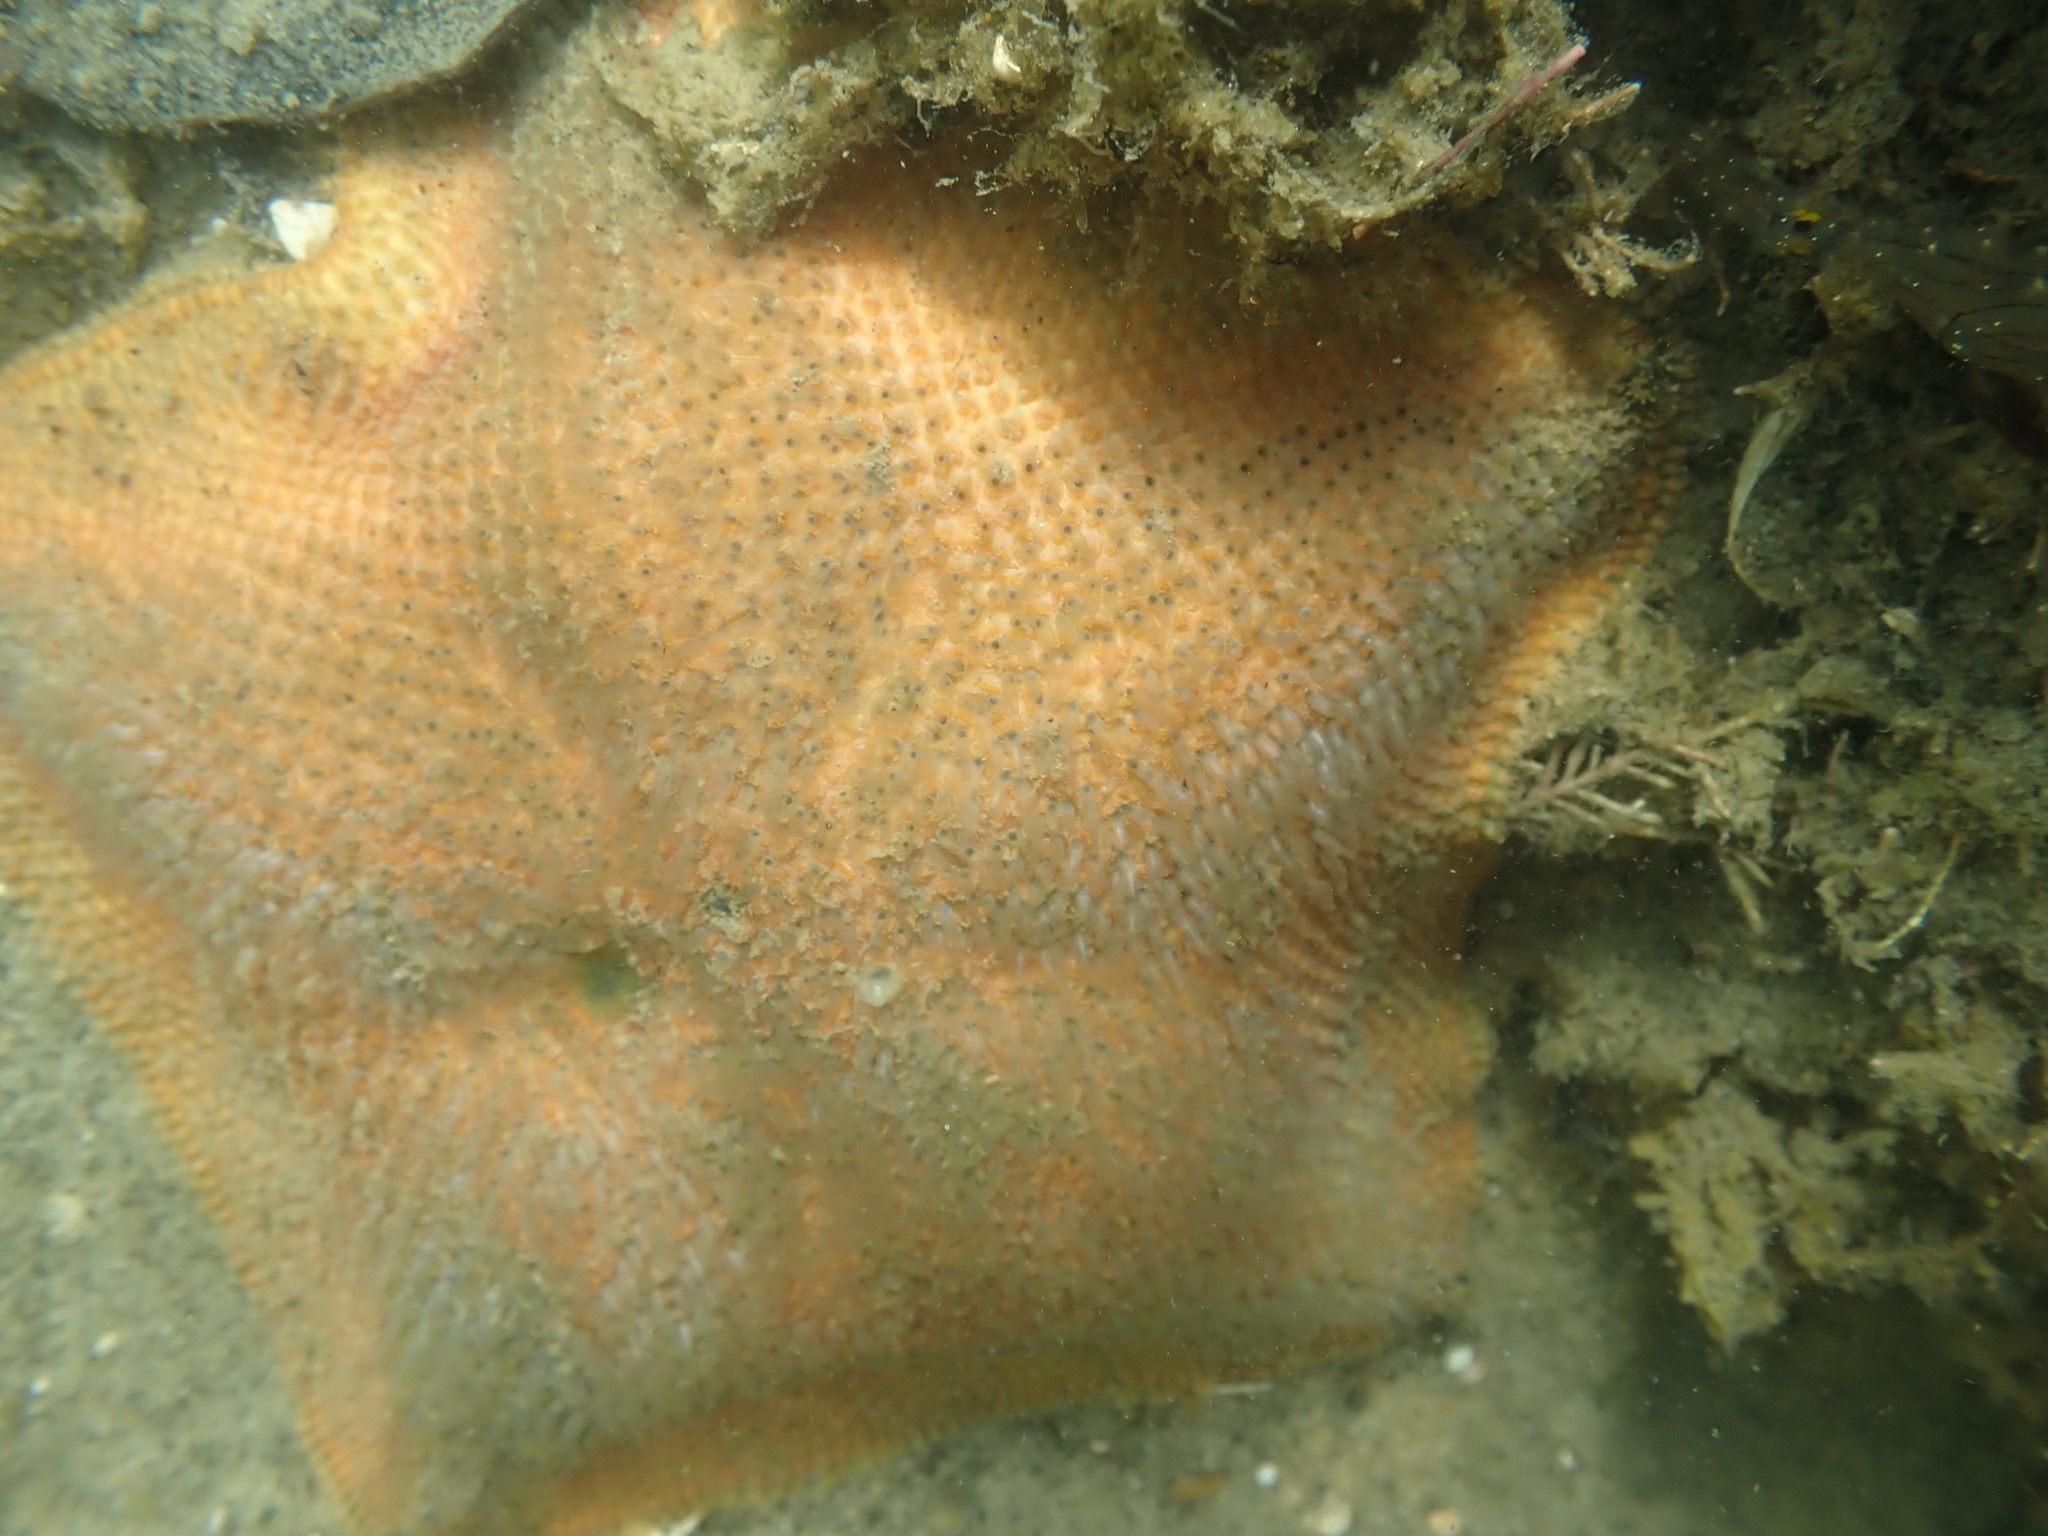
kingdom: Animalia
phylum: Echinodermata
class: Asteroidea
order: Valvatida
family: Asterinidae
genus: Patiriella
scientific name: Patiriella regularis
